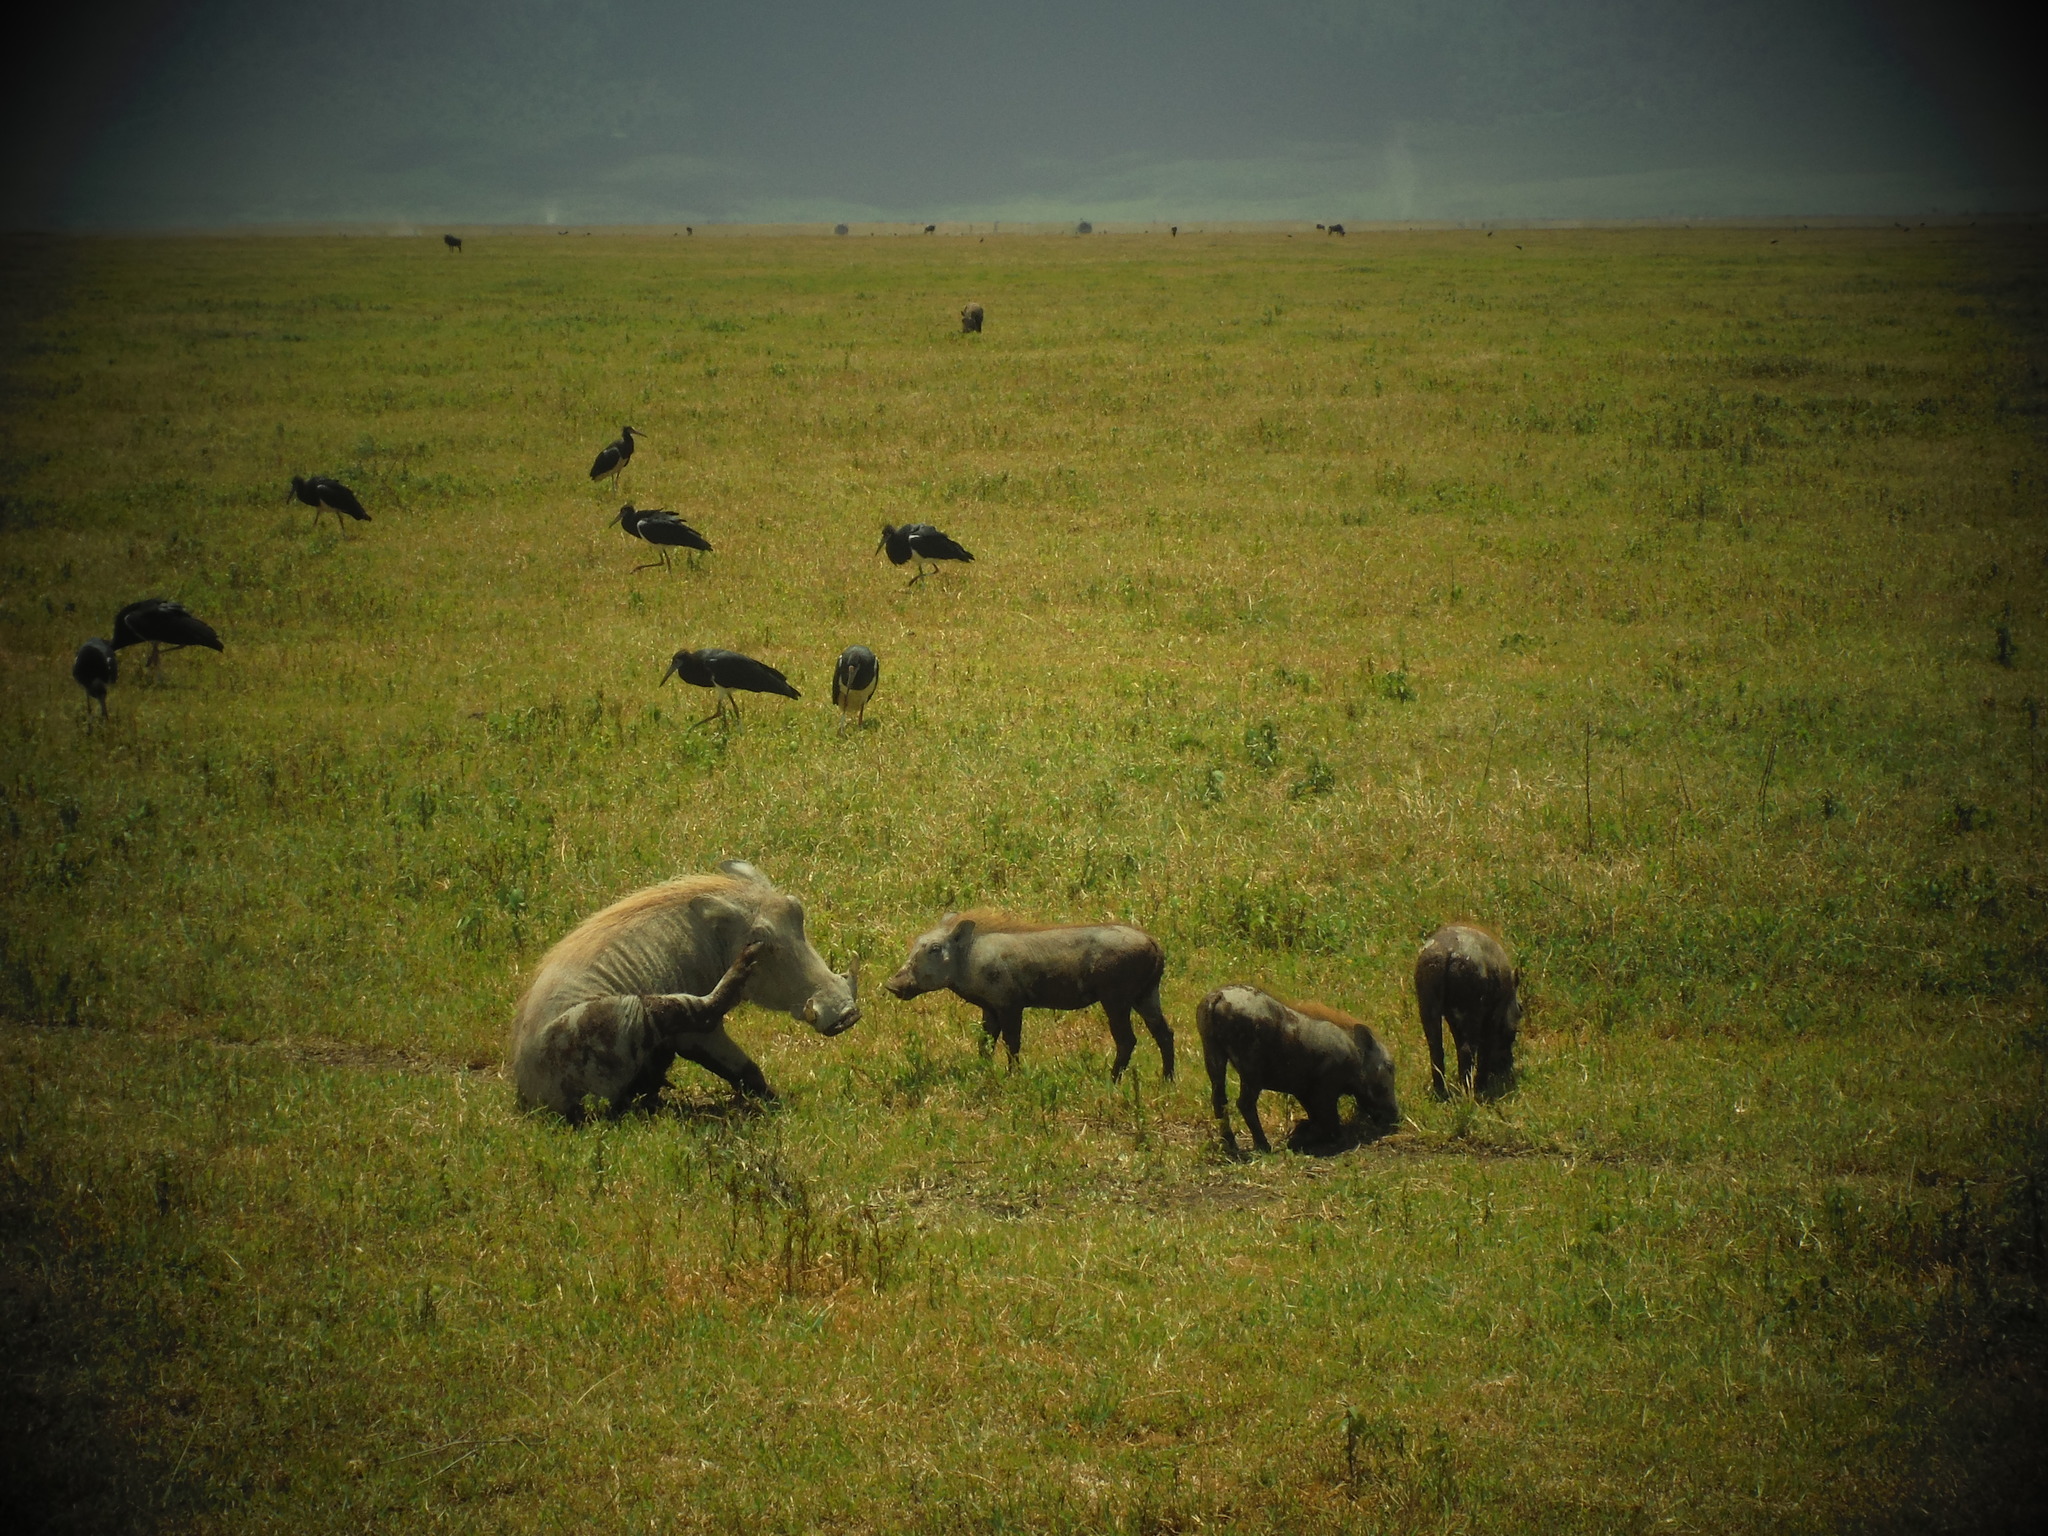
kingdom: Animalia
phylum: Chordata
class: Mammalia
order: Artiodactyla
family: Suidae
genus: Phacochoerus
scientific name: Phacochoerus africanus
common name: Common warthog
